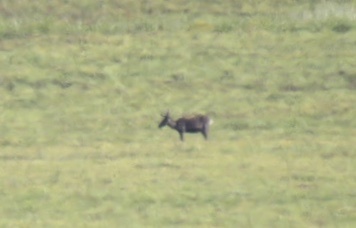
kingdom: Animalia
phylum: Chordata
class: Mammalia
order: Artiodactyla
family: Cervidae
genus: Rangifer
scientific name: Rangifer tarandus
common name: Reindeer
